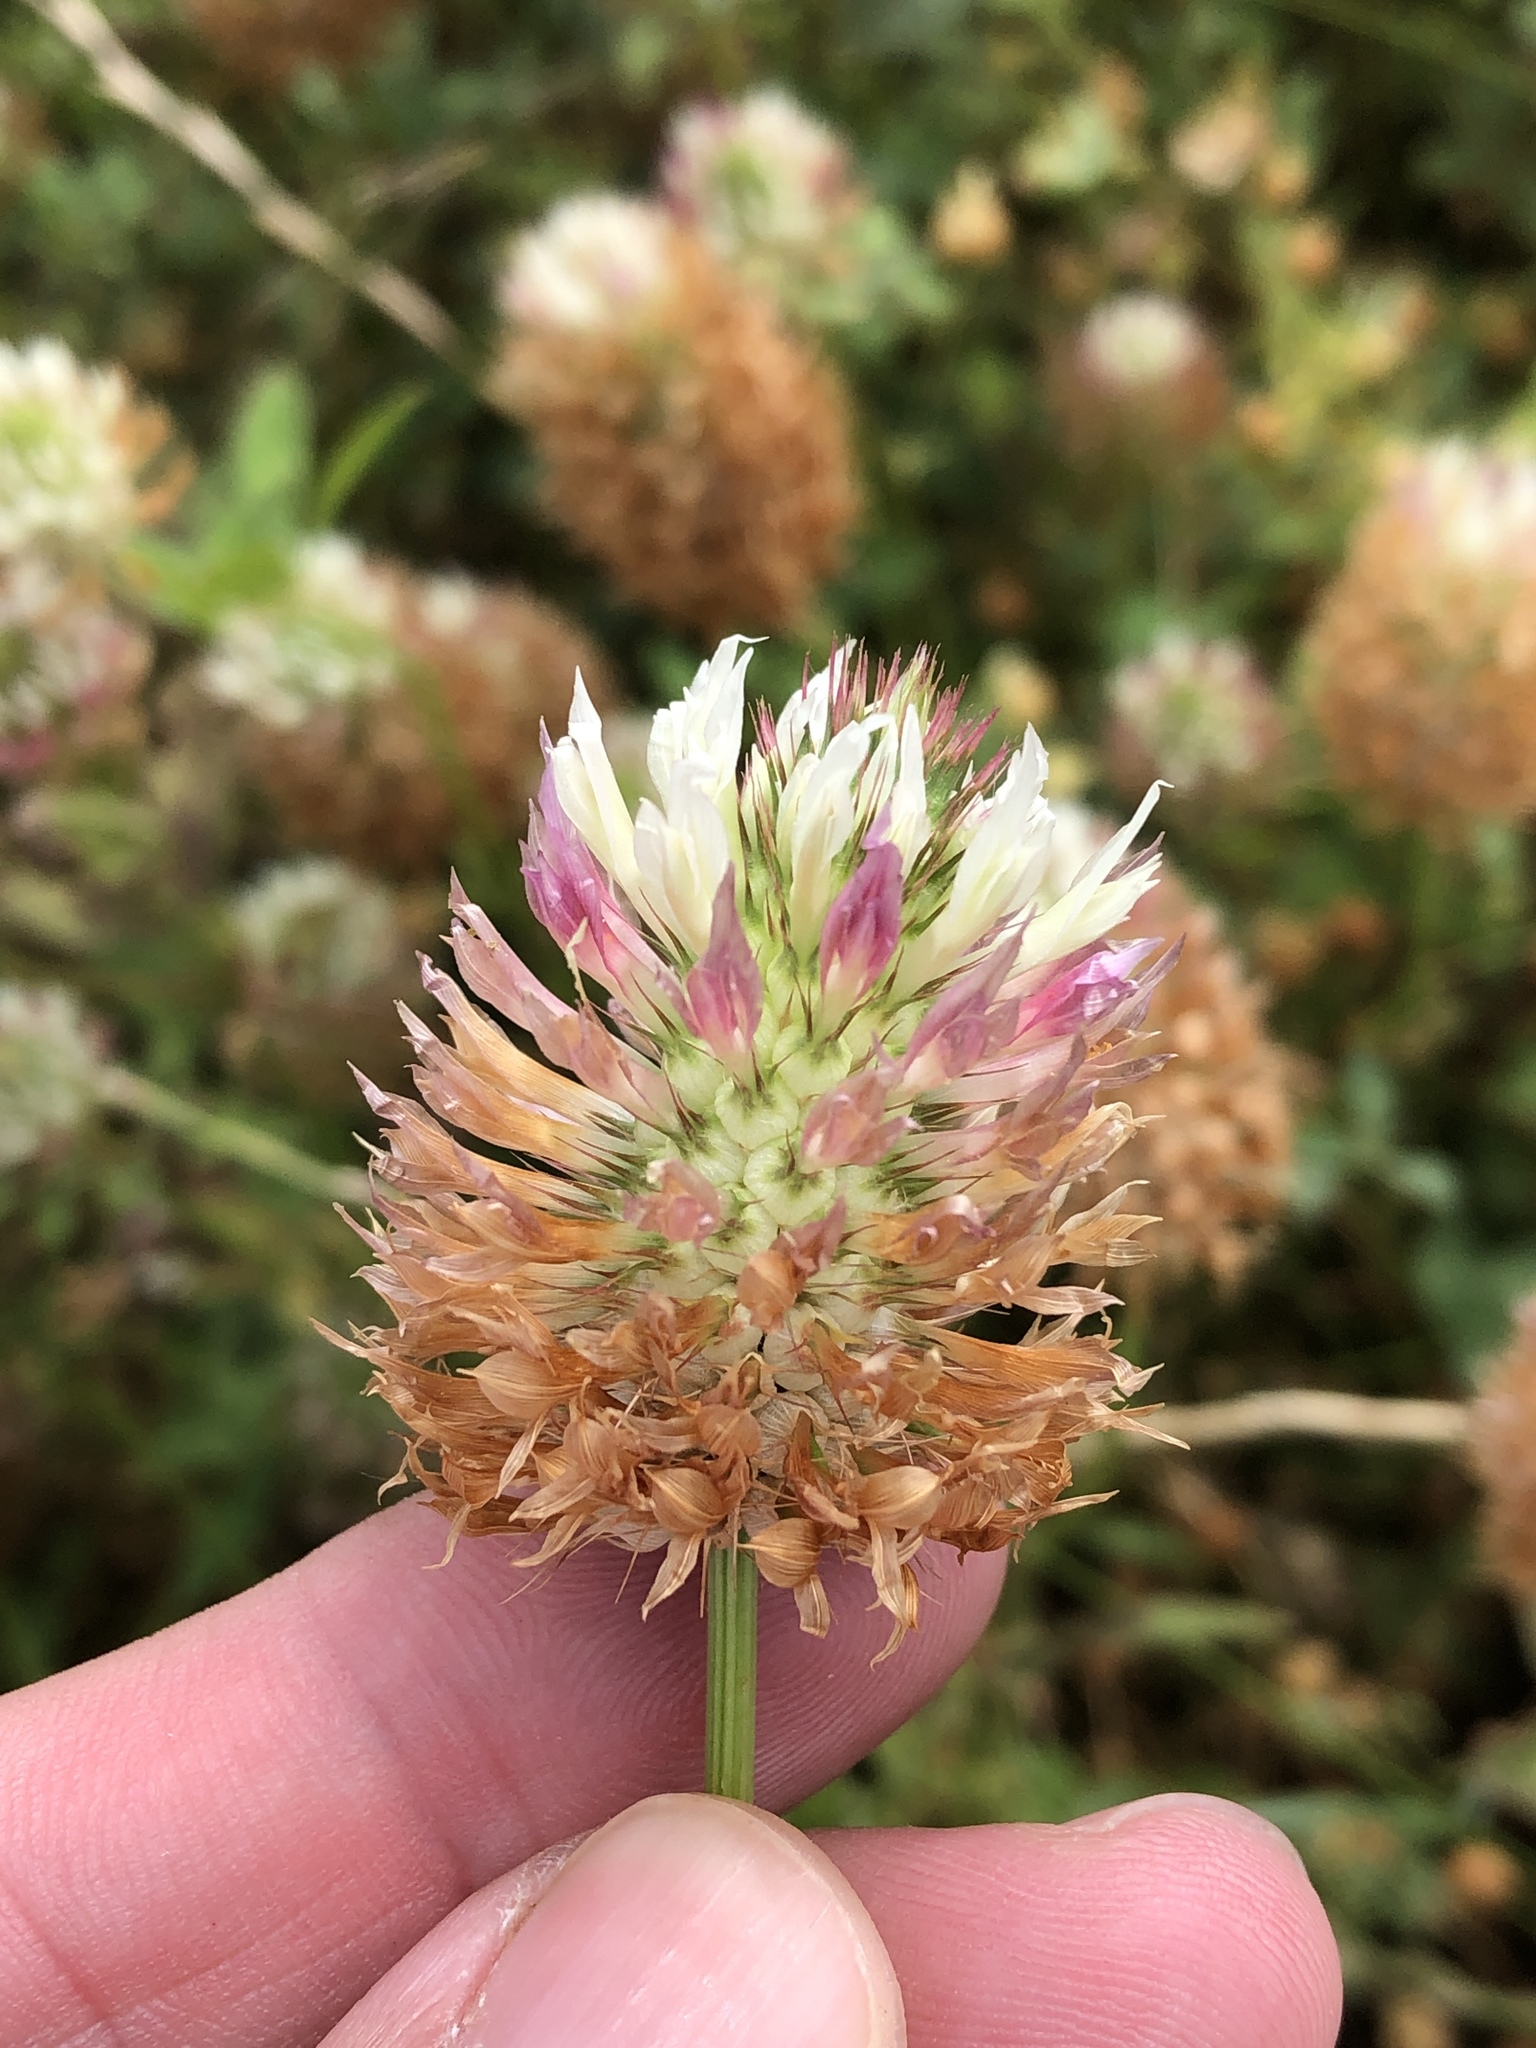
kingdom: Plantae
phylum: Tracheophyta
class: Magnoliopsida
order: Fabales
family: Fabaceae
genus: Trifolium
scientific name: Trifolium vesiculosum
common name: Arrowleaf clover
